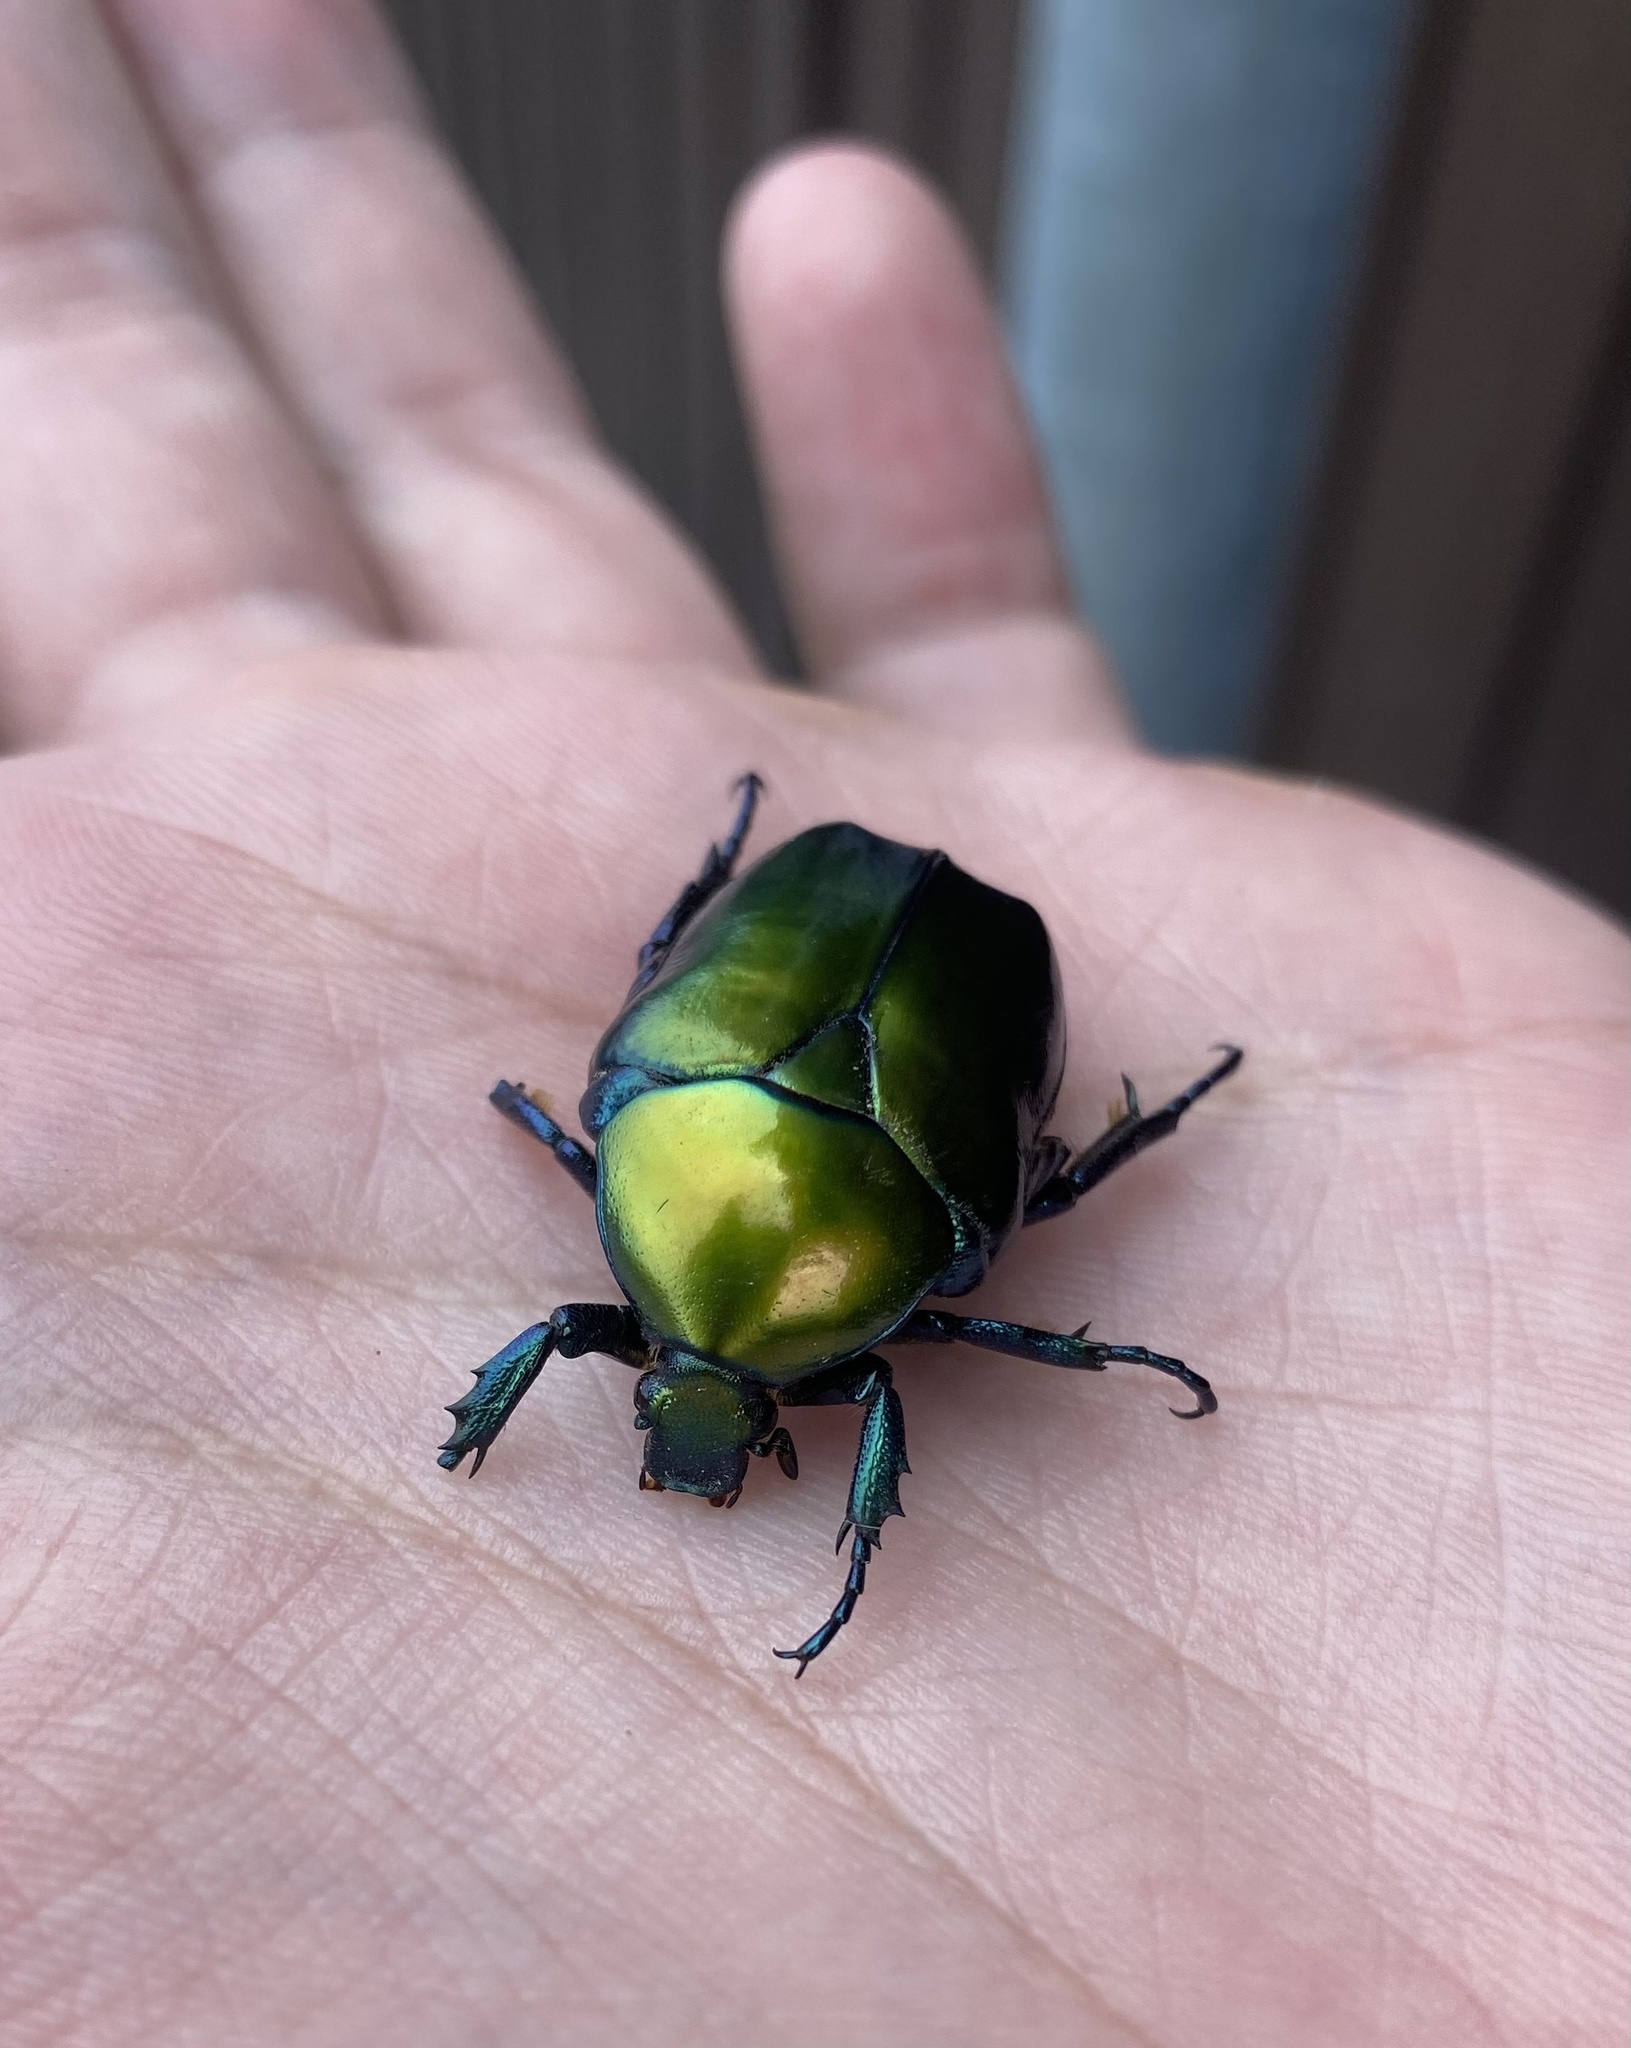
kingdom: Animalia
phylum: Arthropoda
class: Insecta
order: Coleoptera
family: Scarabaeidae
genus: Protaetia
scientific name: Protaetia speciosa
